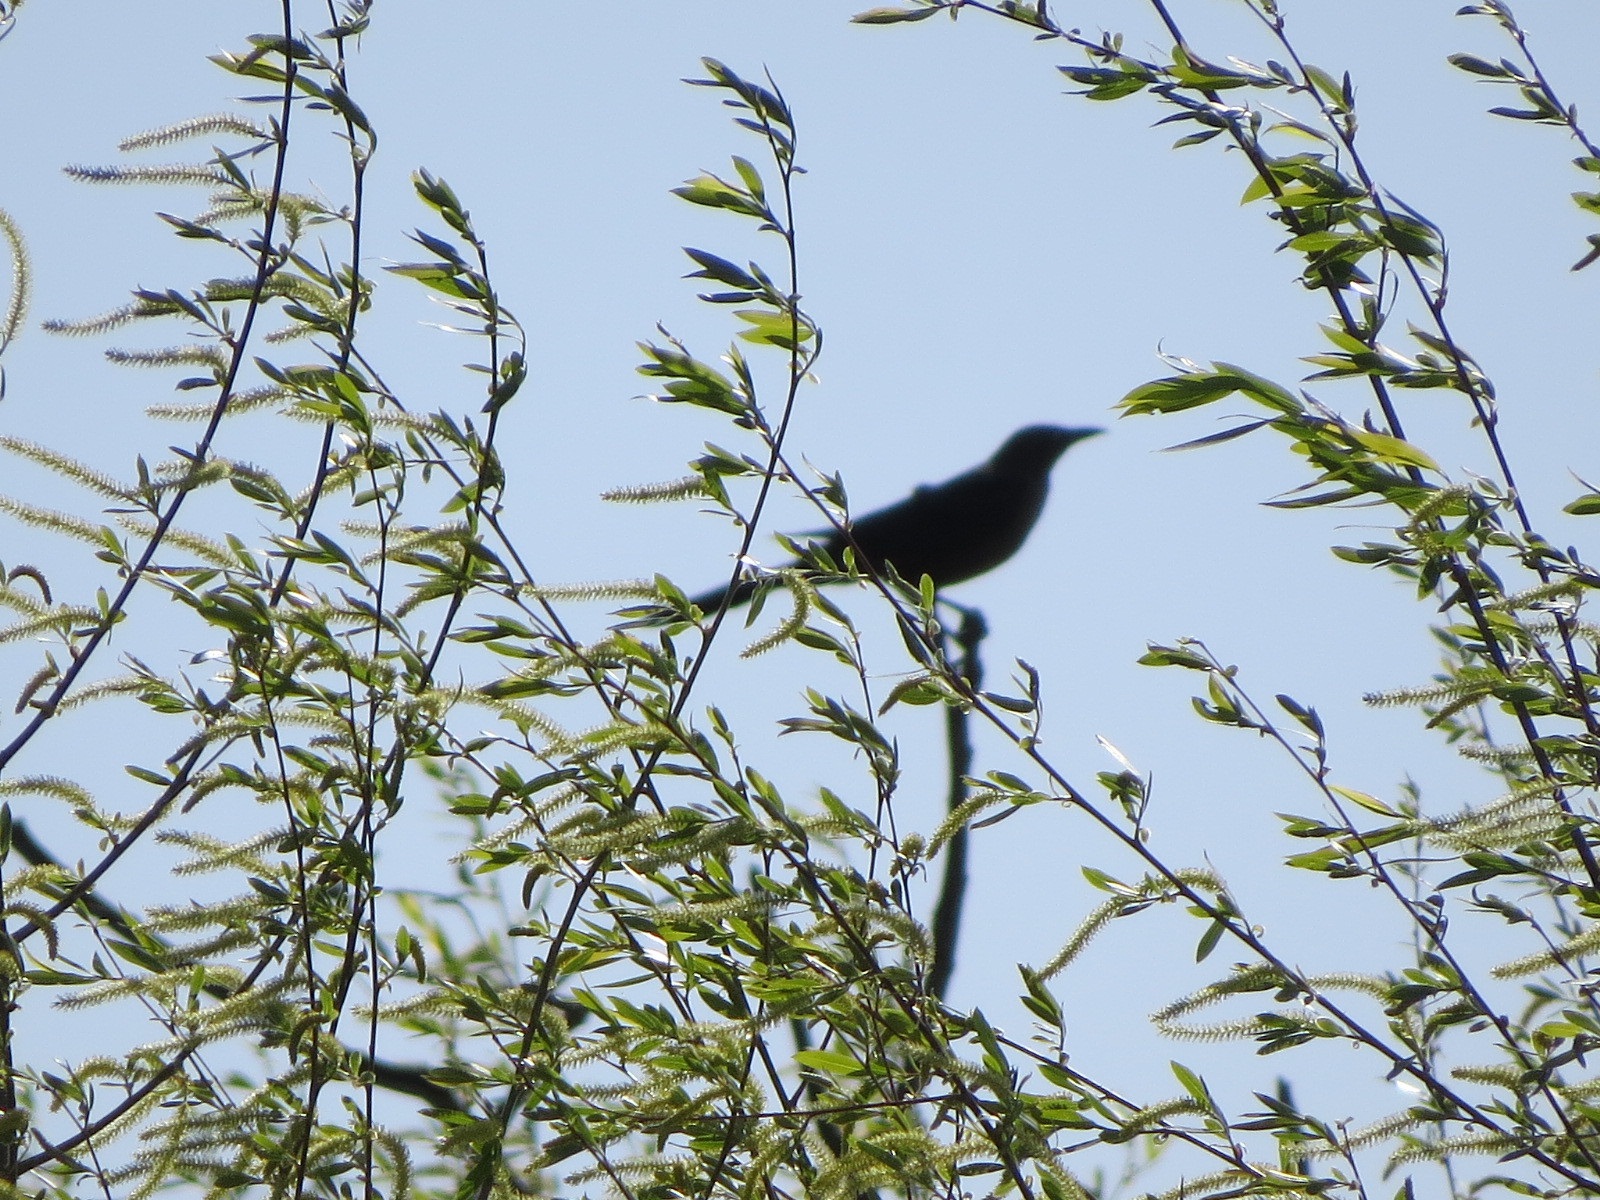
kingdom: Animalia
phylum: Chordata
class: Aves
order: Passeriformes
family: Icteridae
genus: Quiscalus
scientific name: Quiscalus mexicanus
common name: Great-tailed grackle
